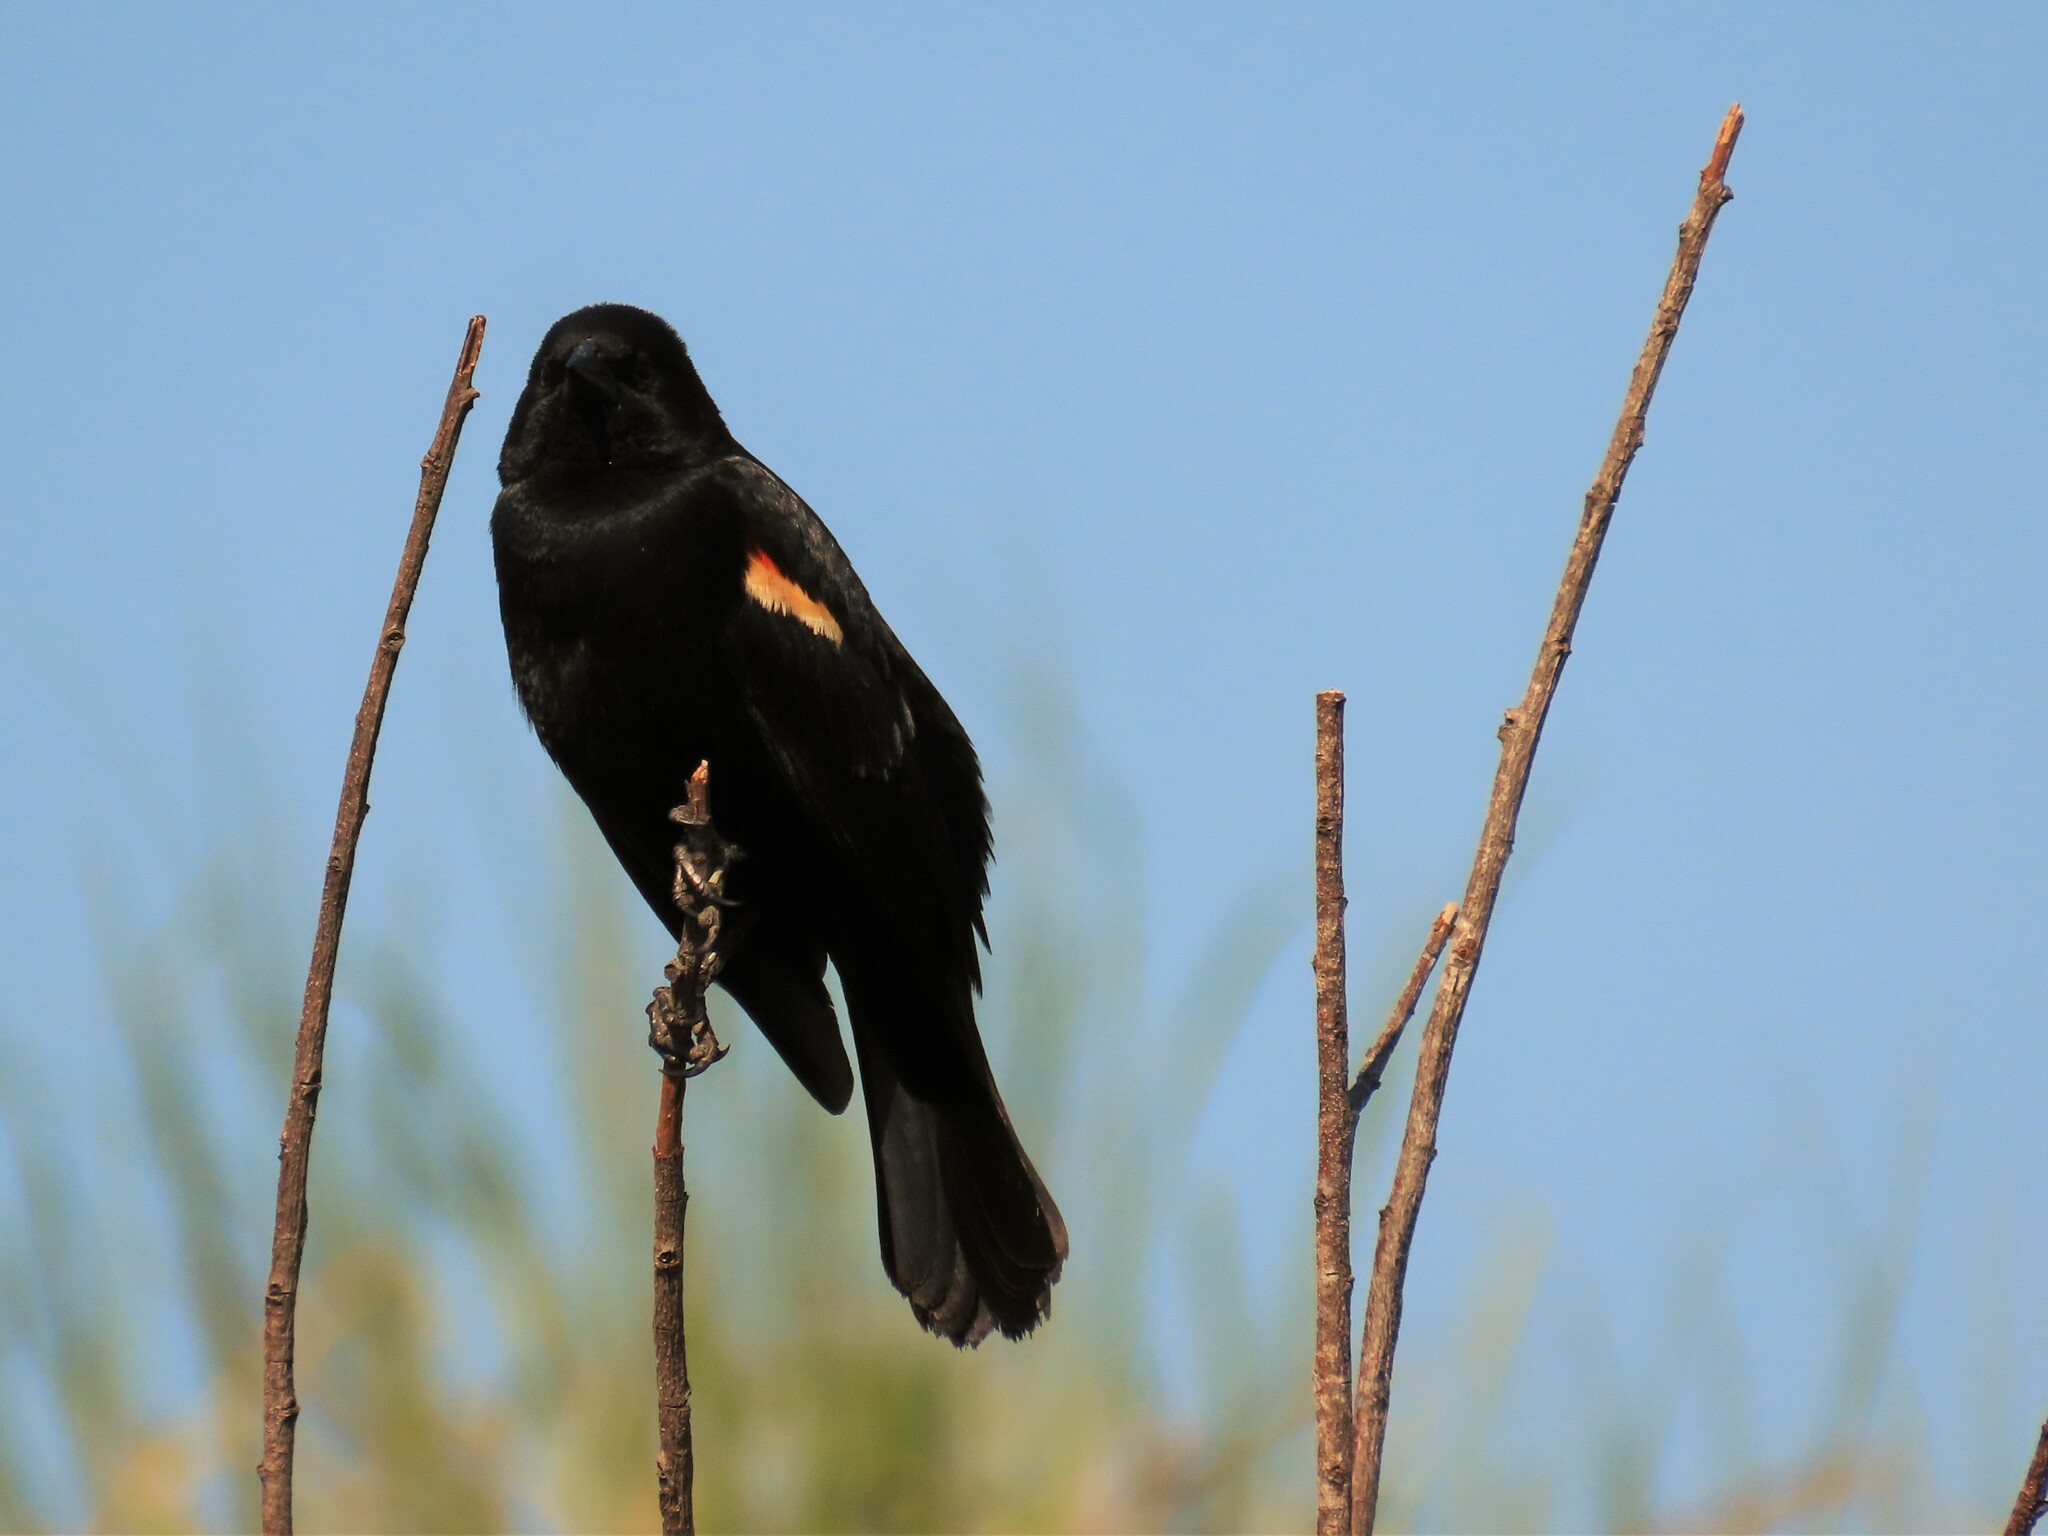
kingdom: Animalia
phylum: Chordata
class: Aves
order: Passeriformes
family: Icteridae
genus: Agelaius
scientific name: Agelaius phoeniceus
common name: Red-winged blackbird
